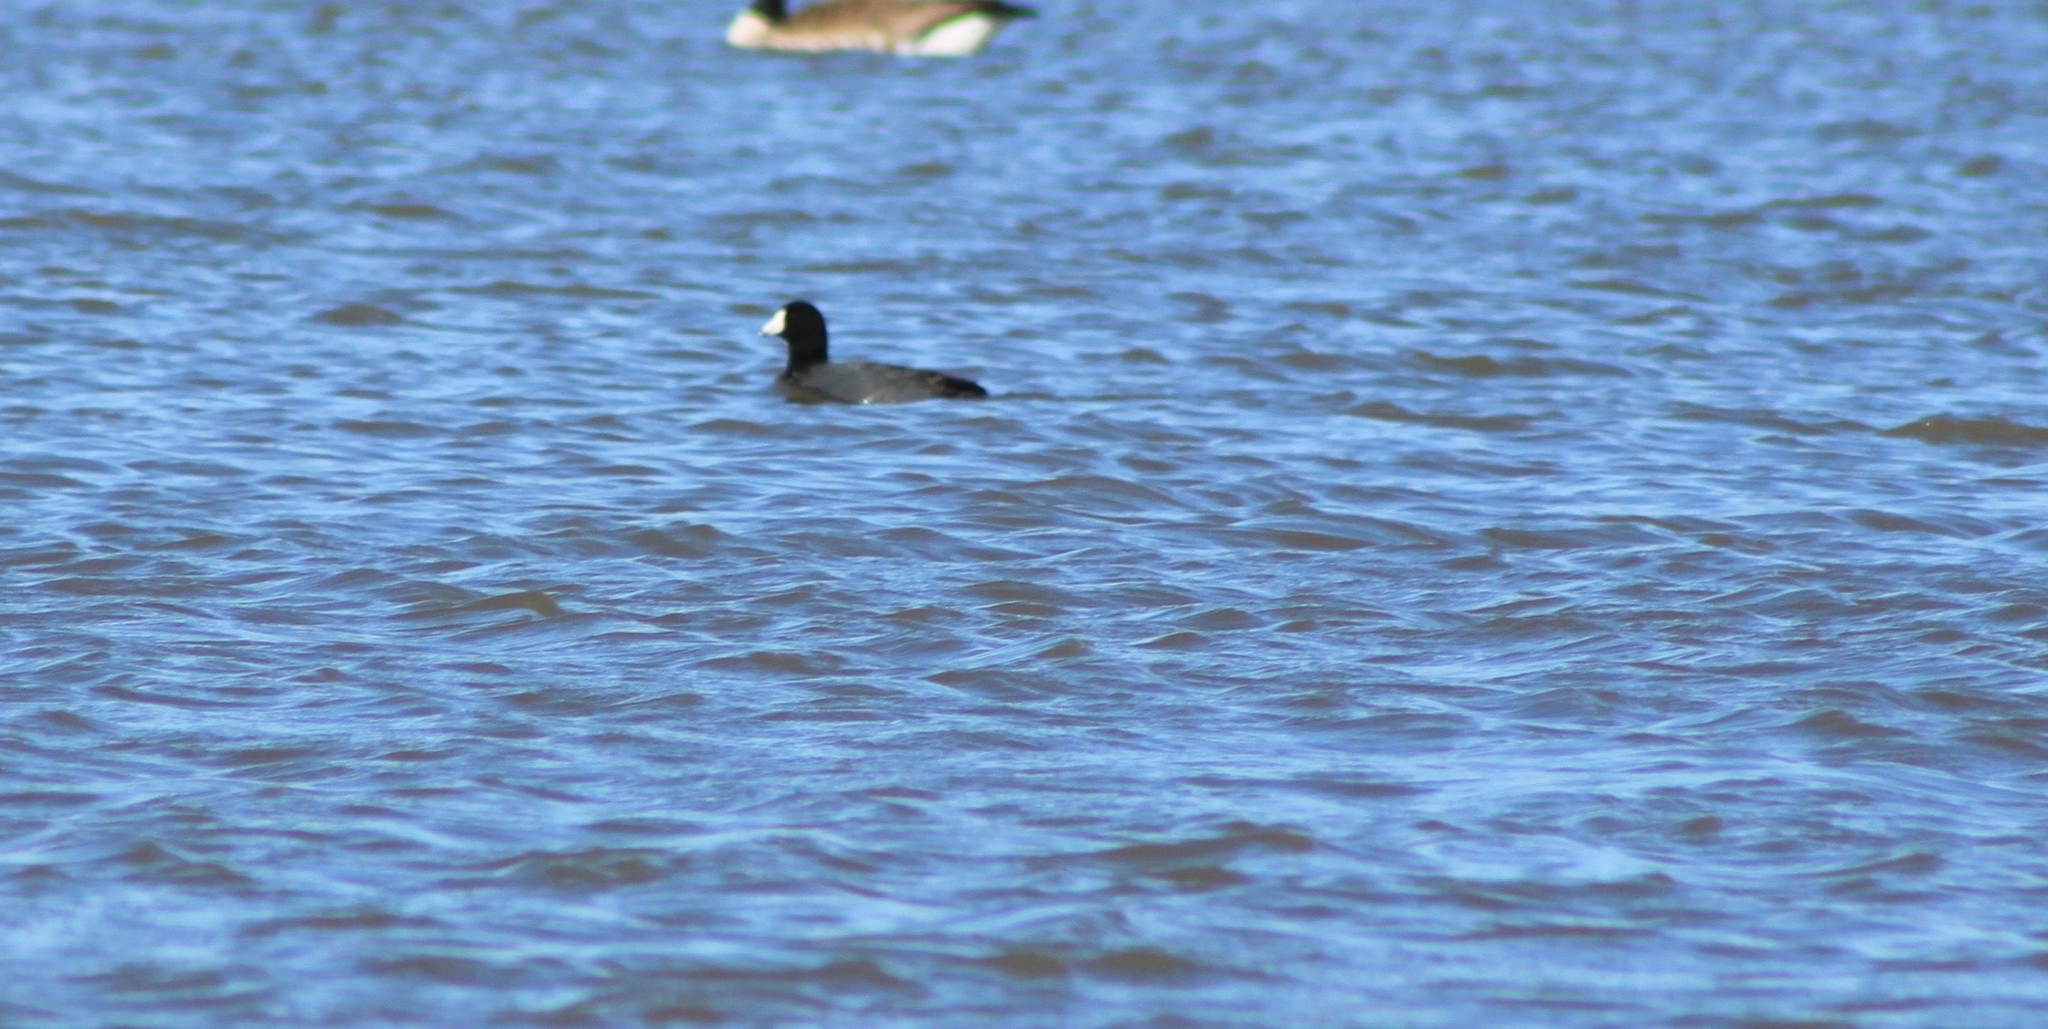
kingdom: Animalia
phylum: Chordata
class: Aves
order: Gruiformes
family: Rallidae
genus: Fulica
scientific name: Fulica americana
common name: American coot
